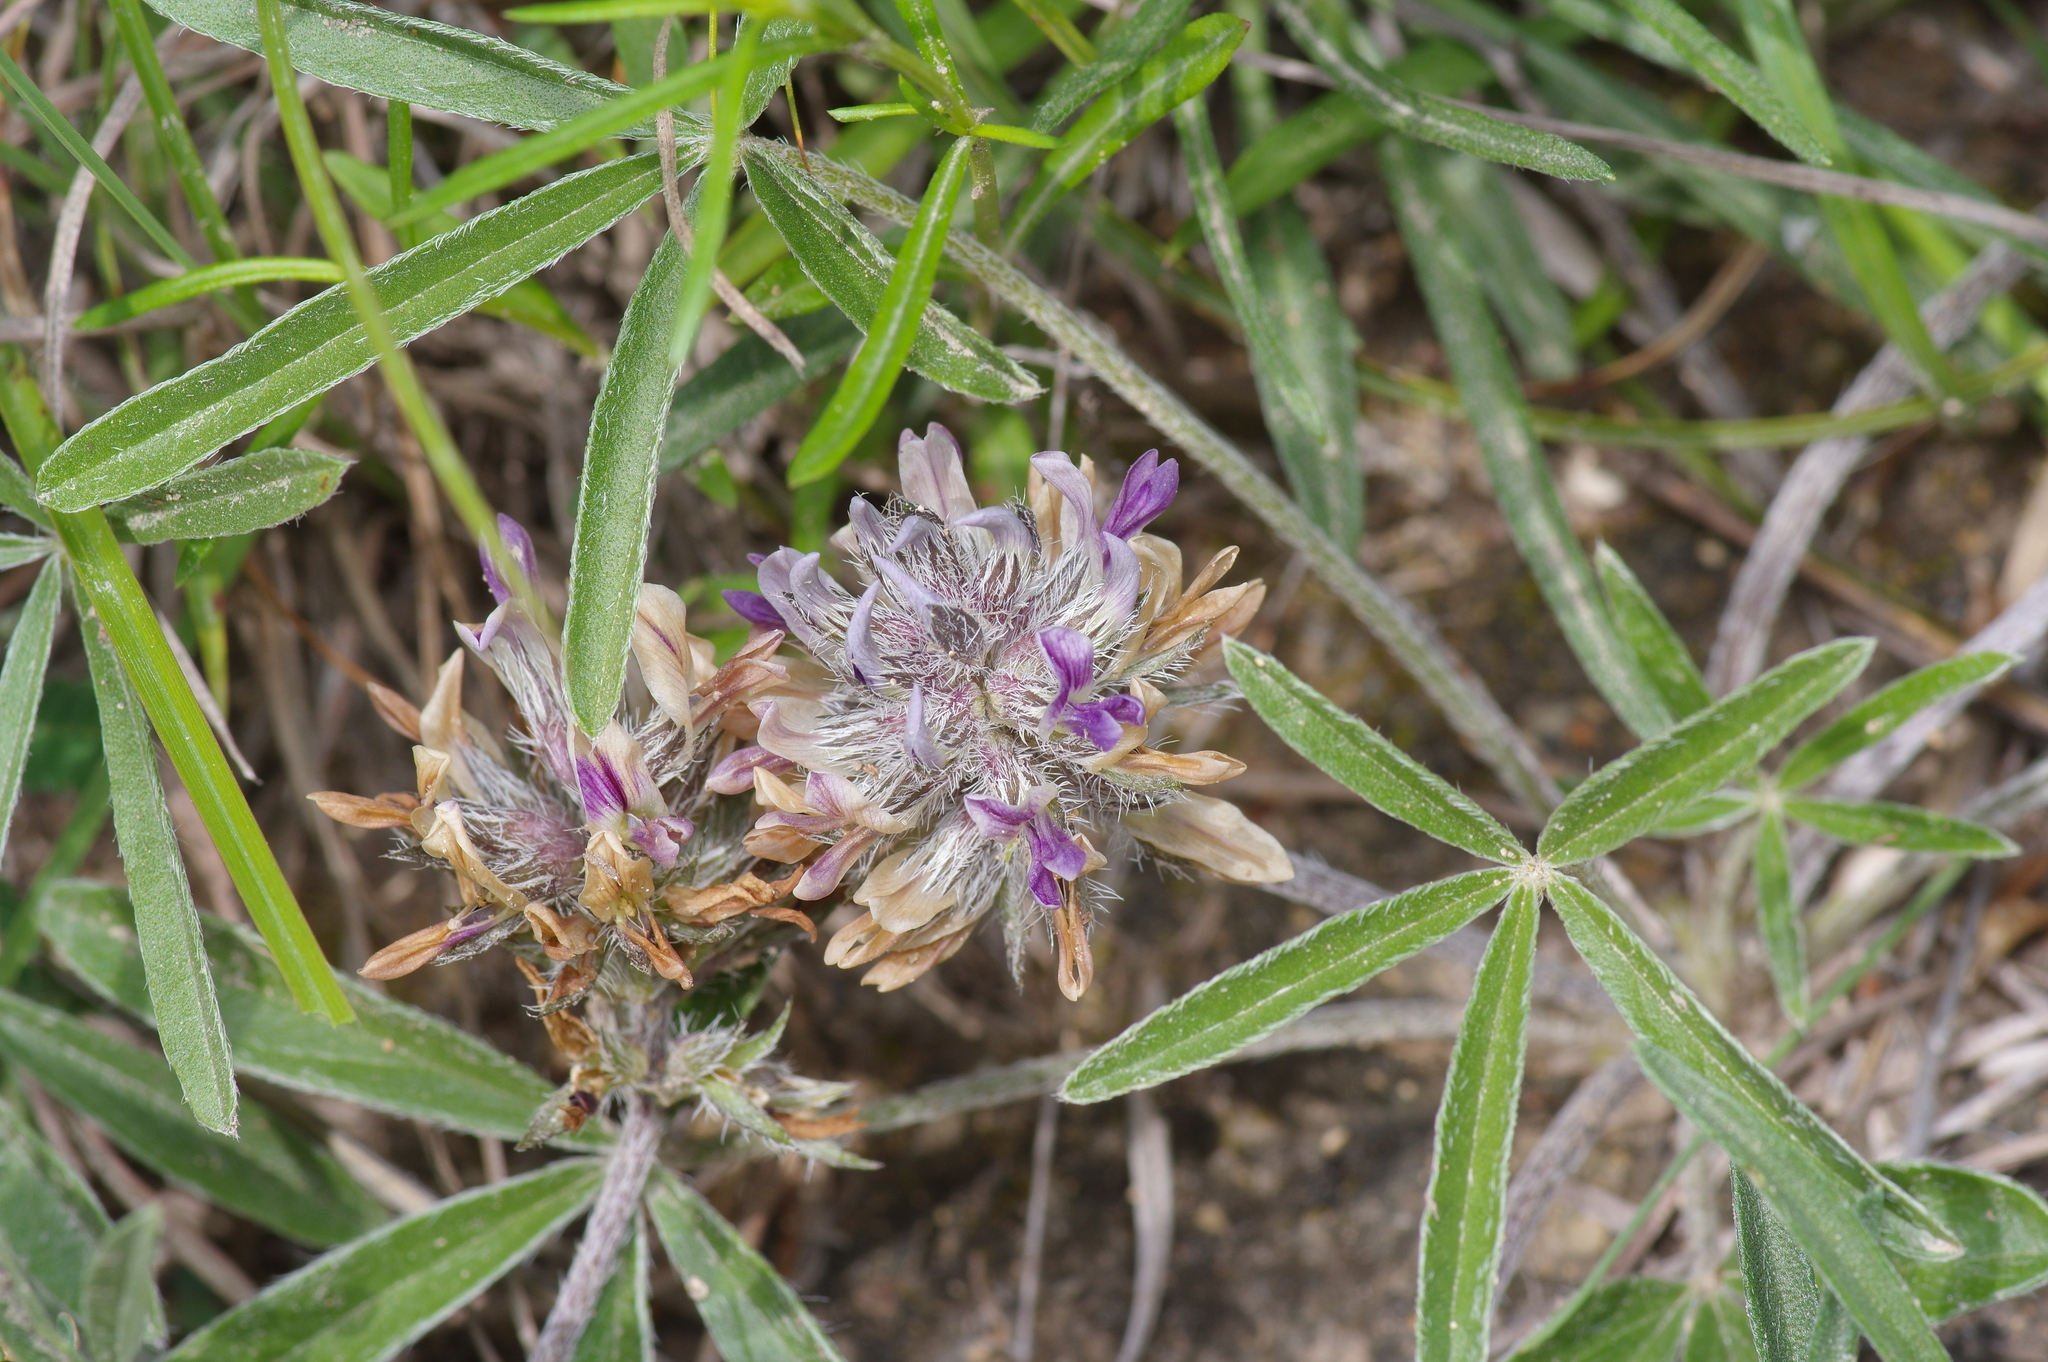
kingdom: Plantae
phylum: Tracheophyta
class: Magnoliopsida
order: Fabales
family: Fabaceae
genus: Pediomelum
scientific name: Pediomelum hypogaeum
